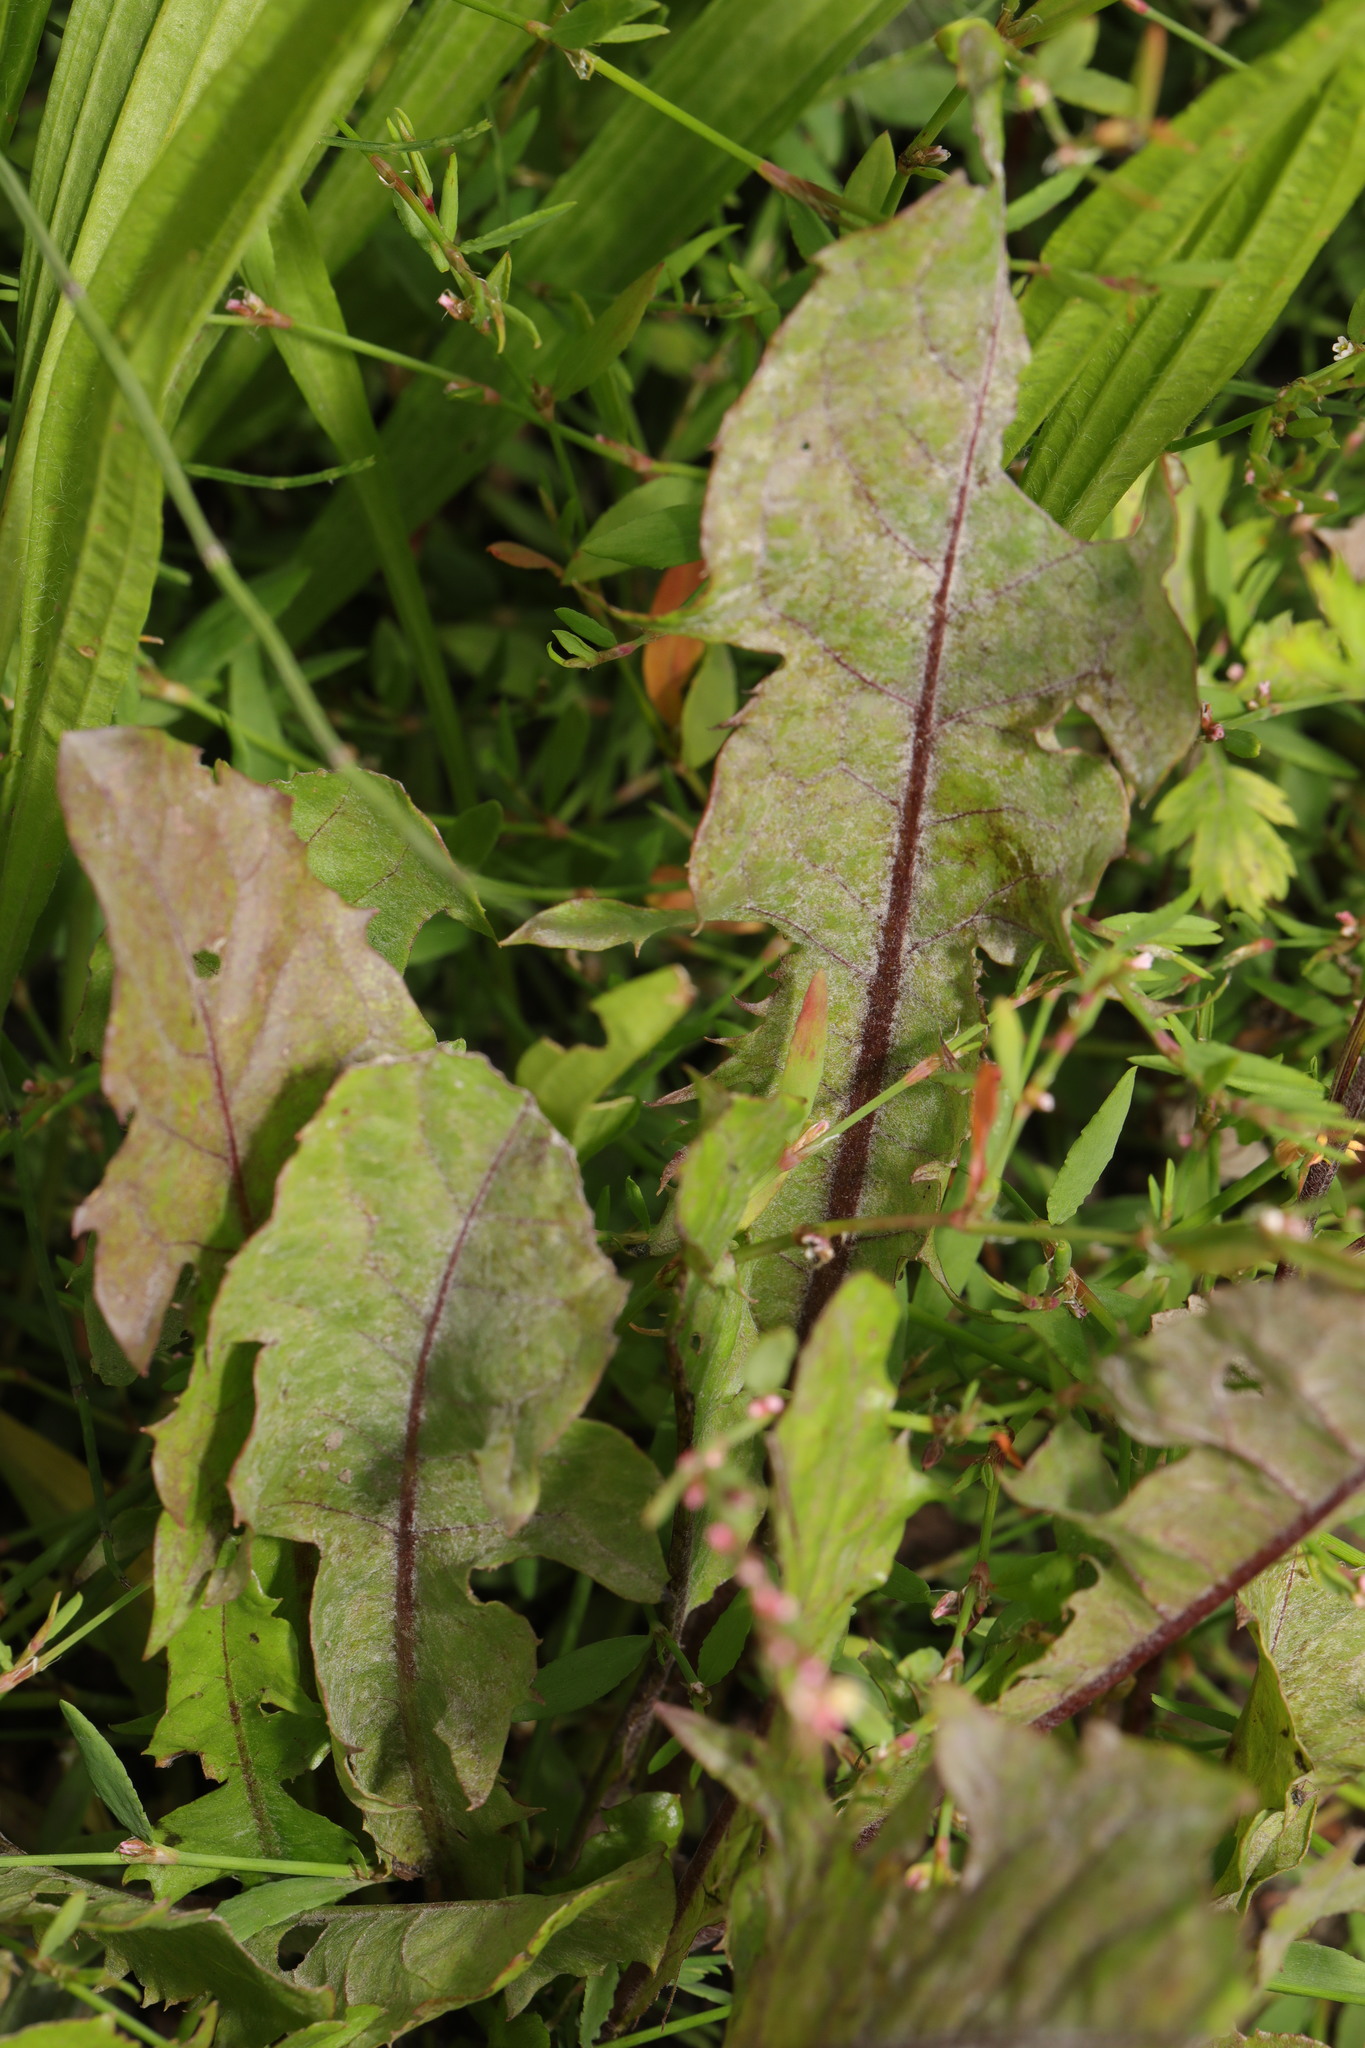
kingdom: Plantae
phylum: Tracheophyta
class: Magnoliopsida
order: Asterales
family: Asteraceae
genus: Taraxacum
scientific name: Taraxacum officinale
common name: Common dandelion
